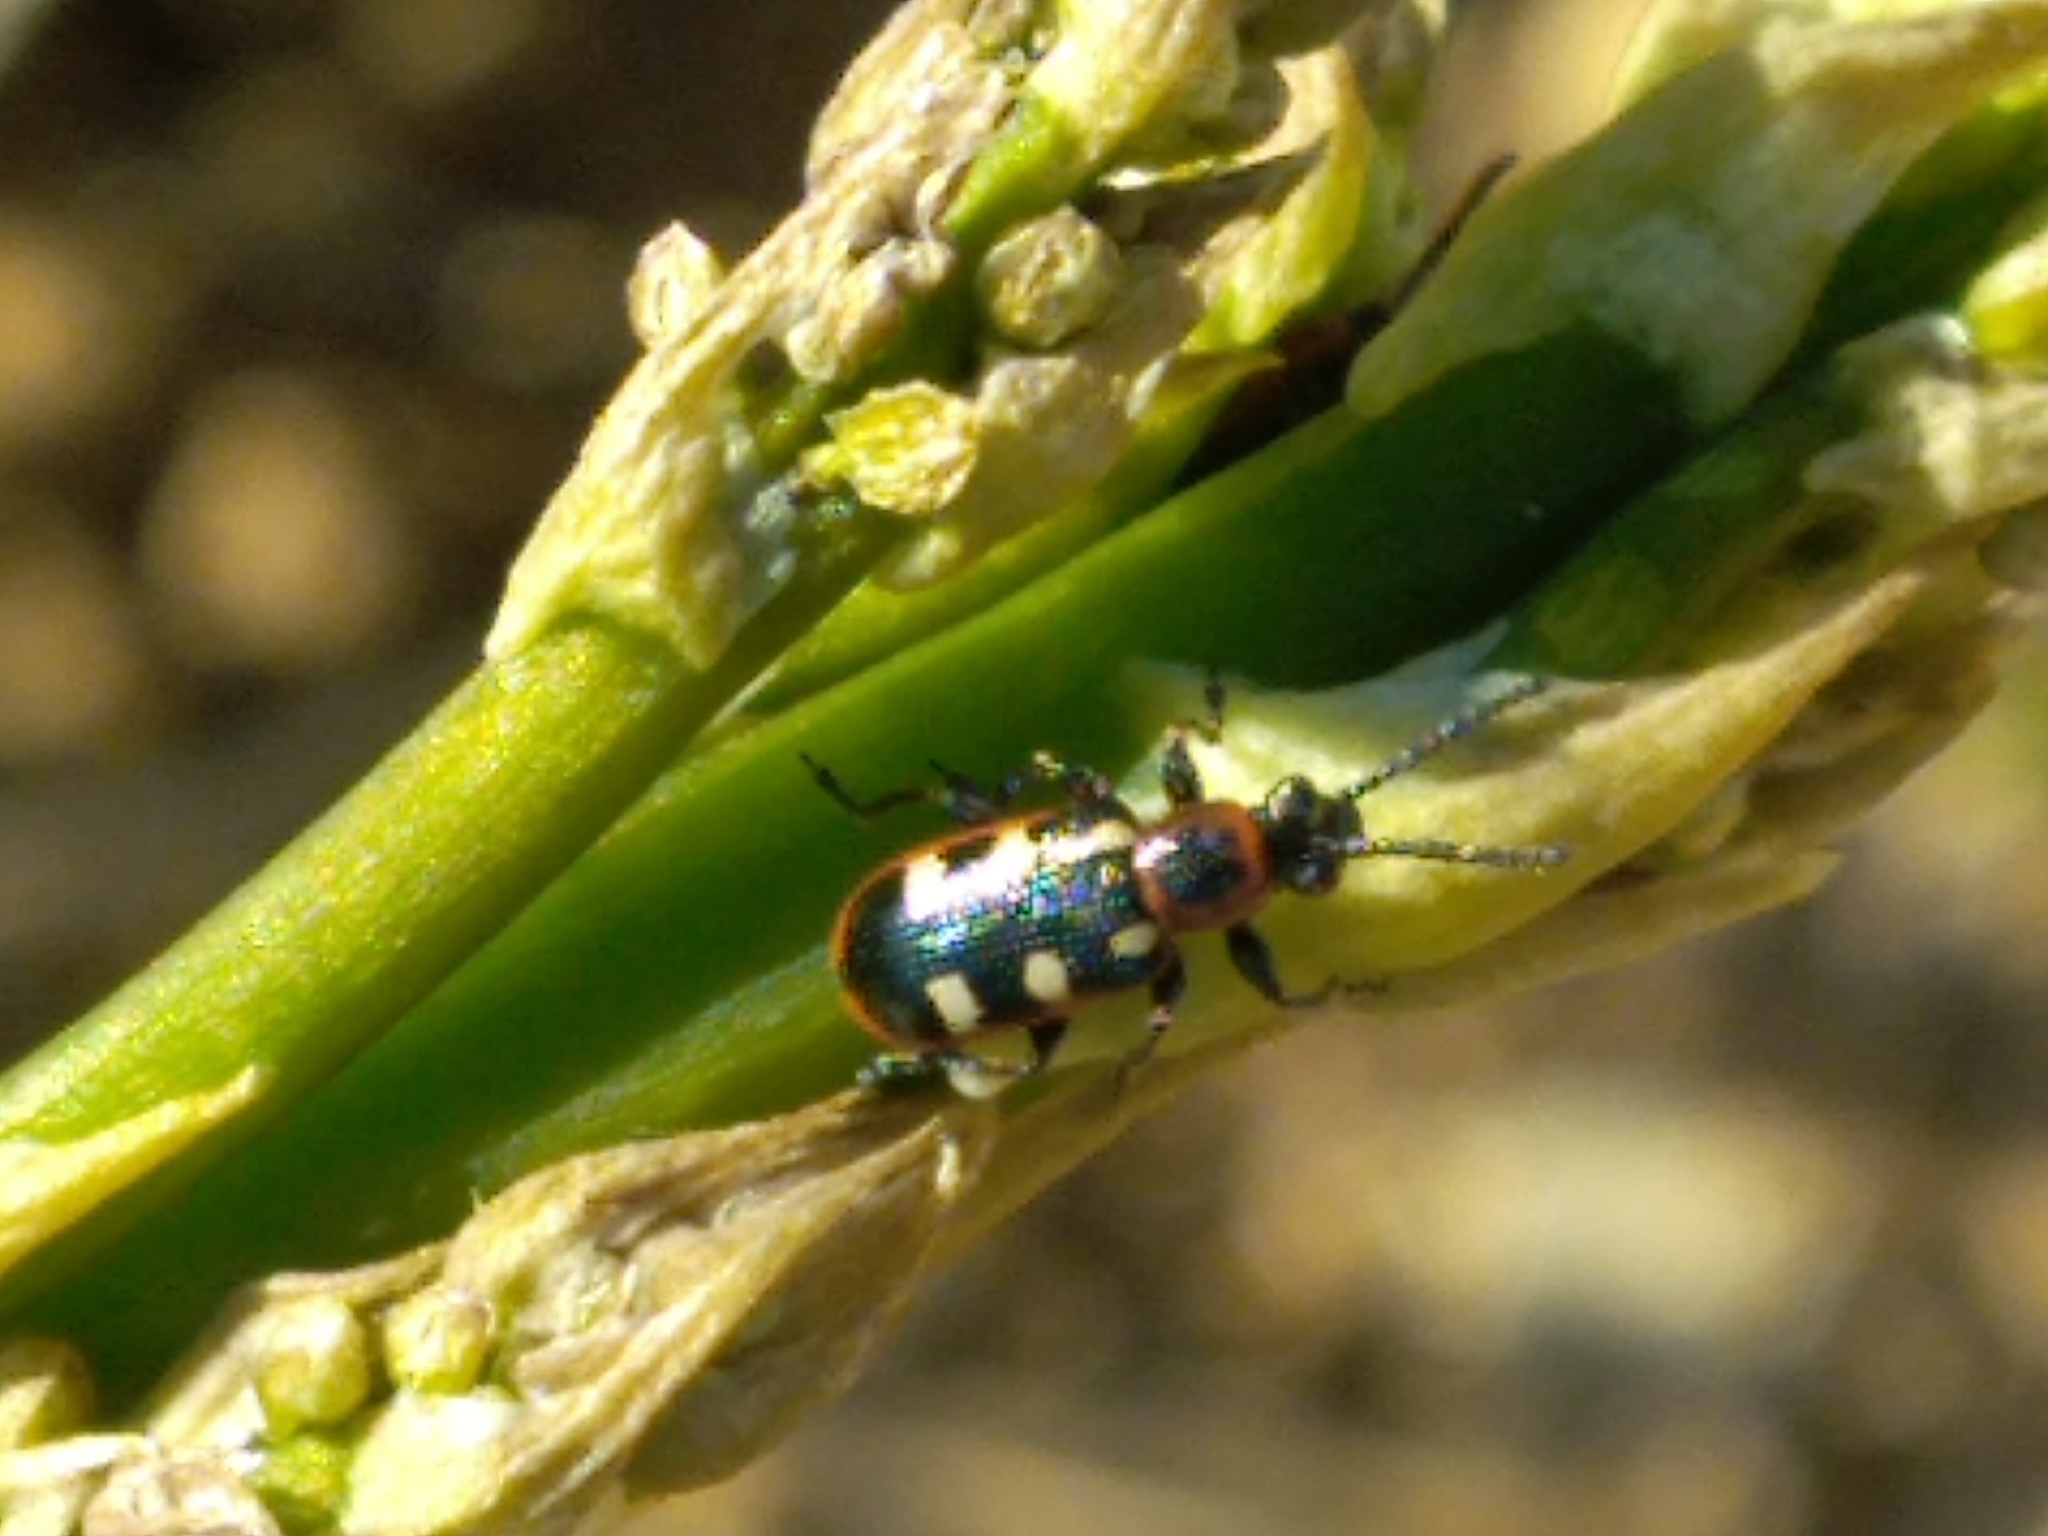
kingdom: Animalia
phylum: Arthropoda
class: Insecta
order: Coleoptera
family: Chrysomelidae
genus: Crioceris
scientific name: Crioceris asparagi
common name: Asparagus beetle
